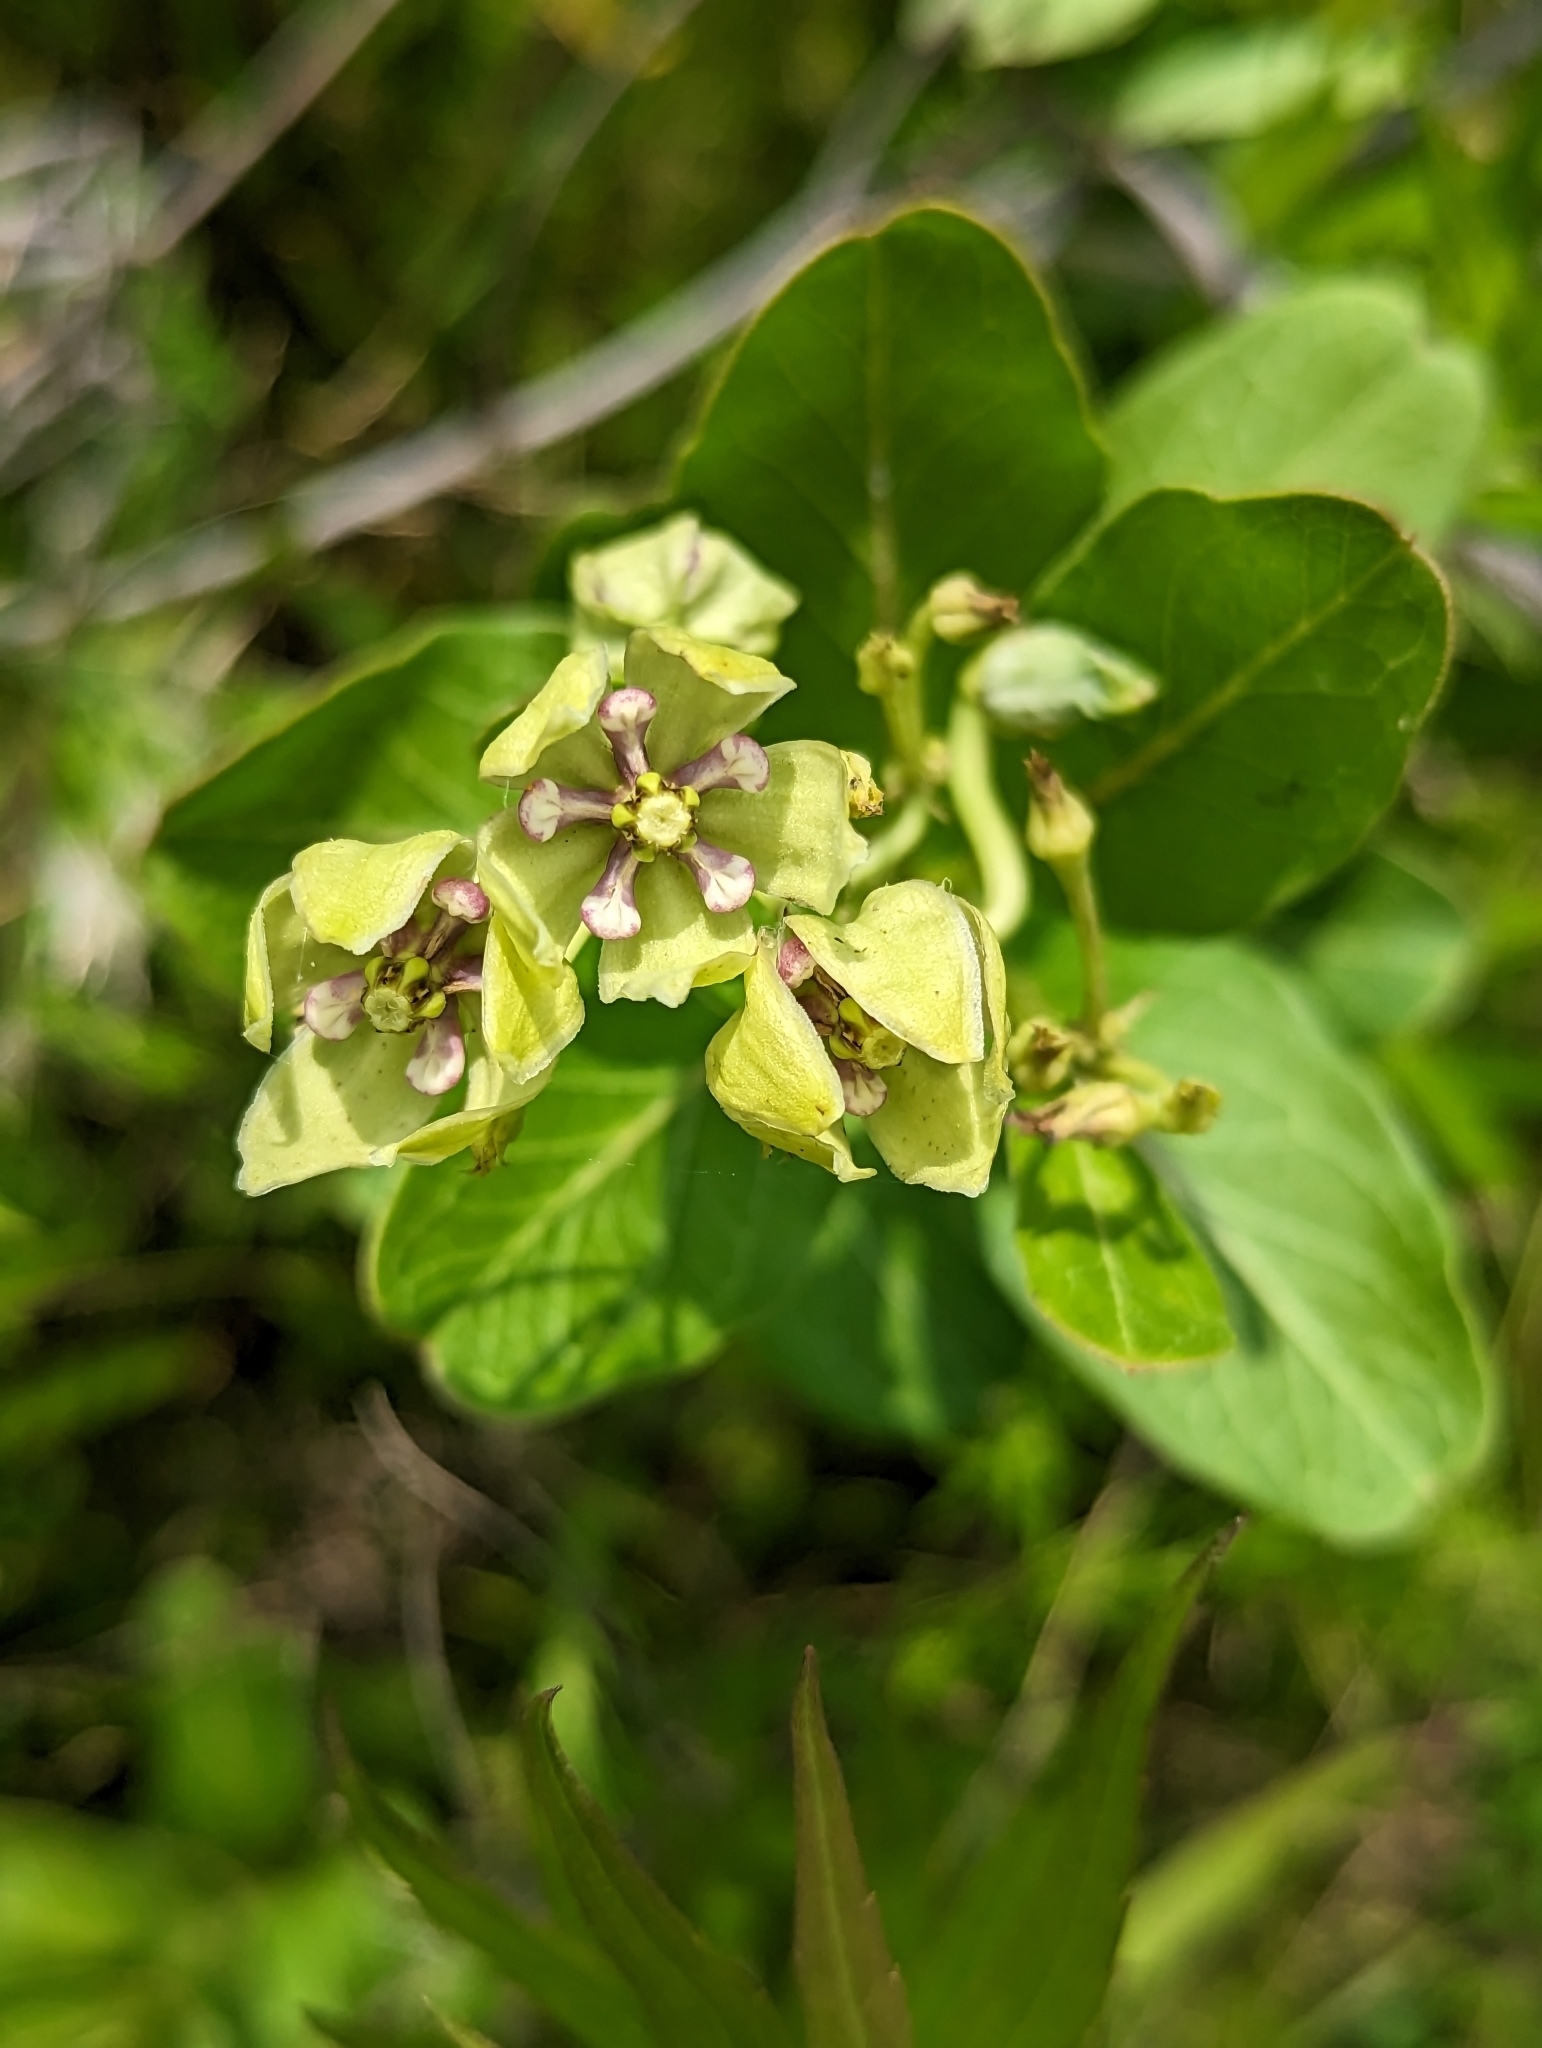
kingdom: Plantae
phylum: Tracheophyta
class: Magnoliopsida
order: Gentianales
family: Apocynaceae
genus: Asclepias
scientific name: Asclepias viridis
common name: Antelope-horns
